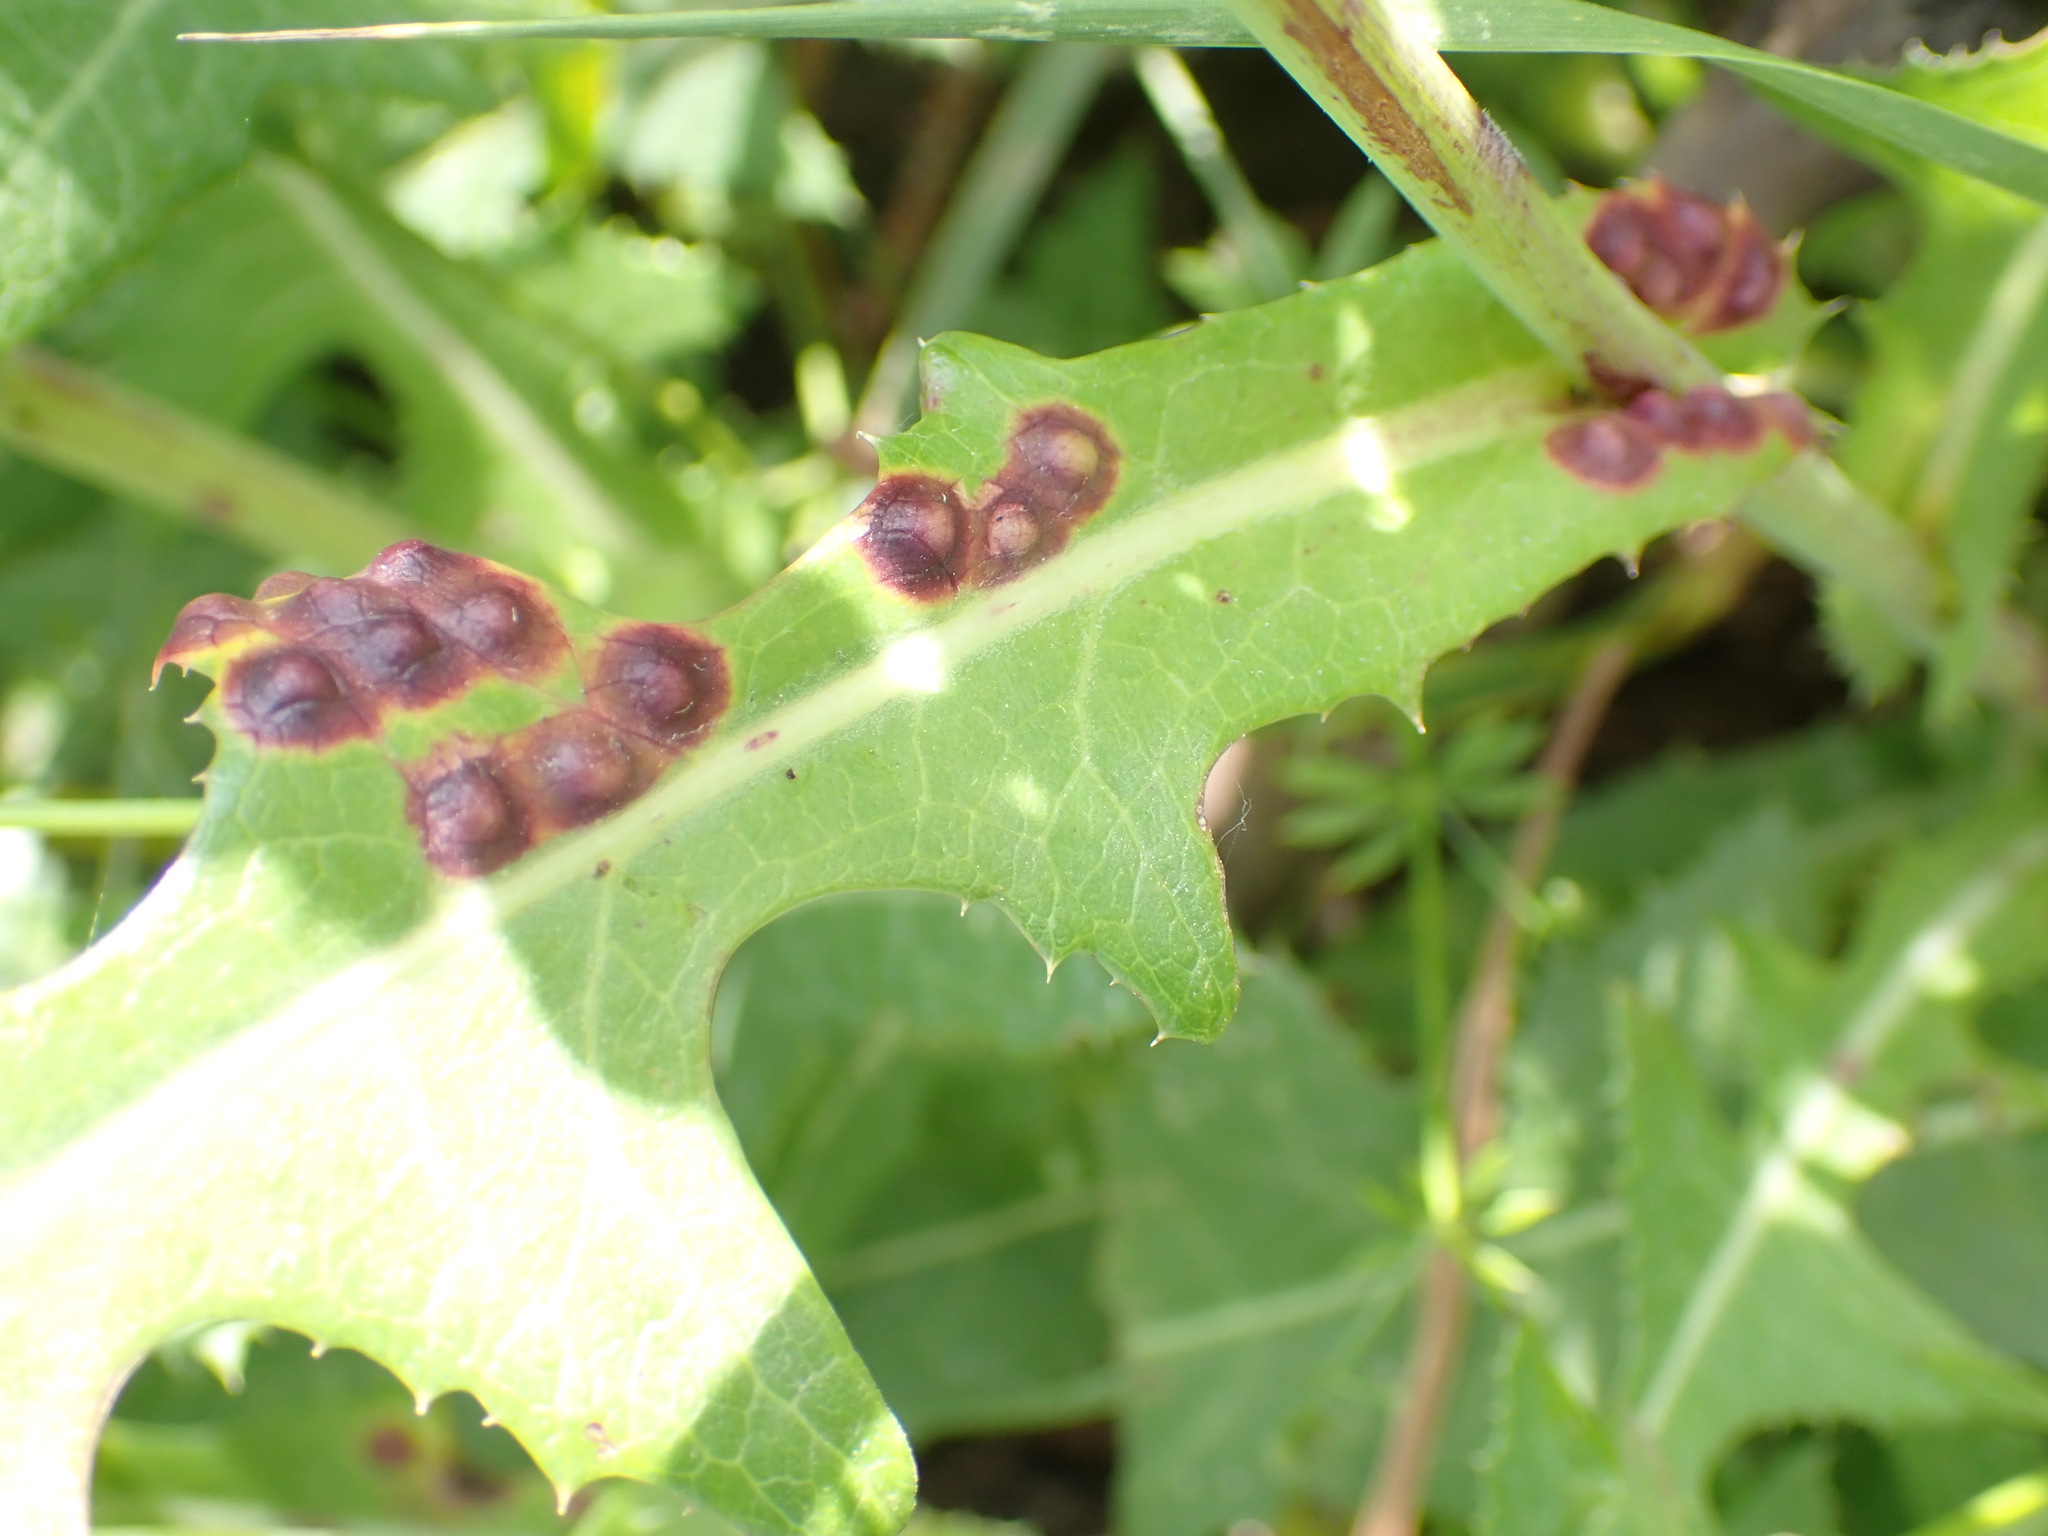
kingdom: Animalia
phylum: Arthropoda
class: Insecta
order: Diptera
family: Cecidomyiidae
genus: Cystiphora
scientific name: Cystiphora sonchi
